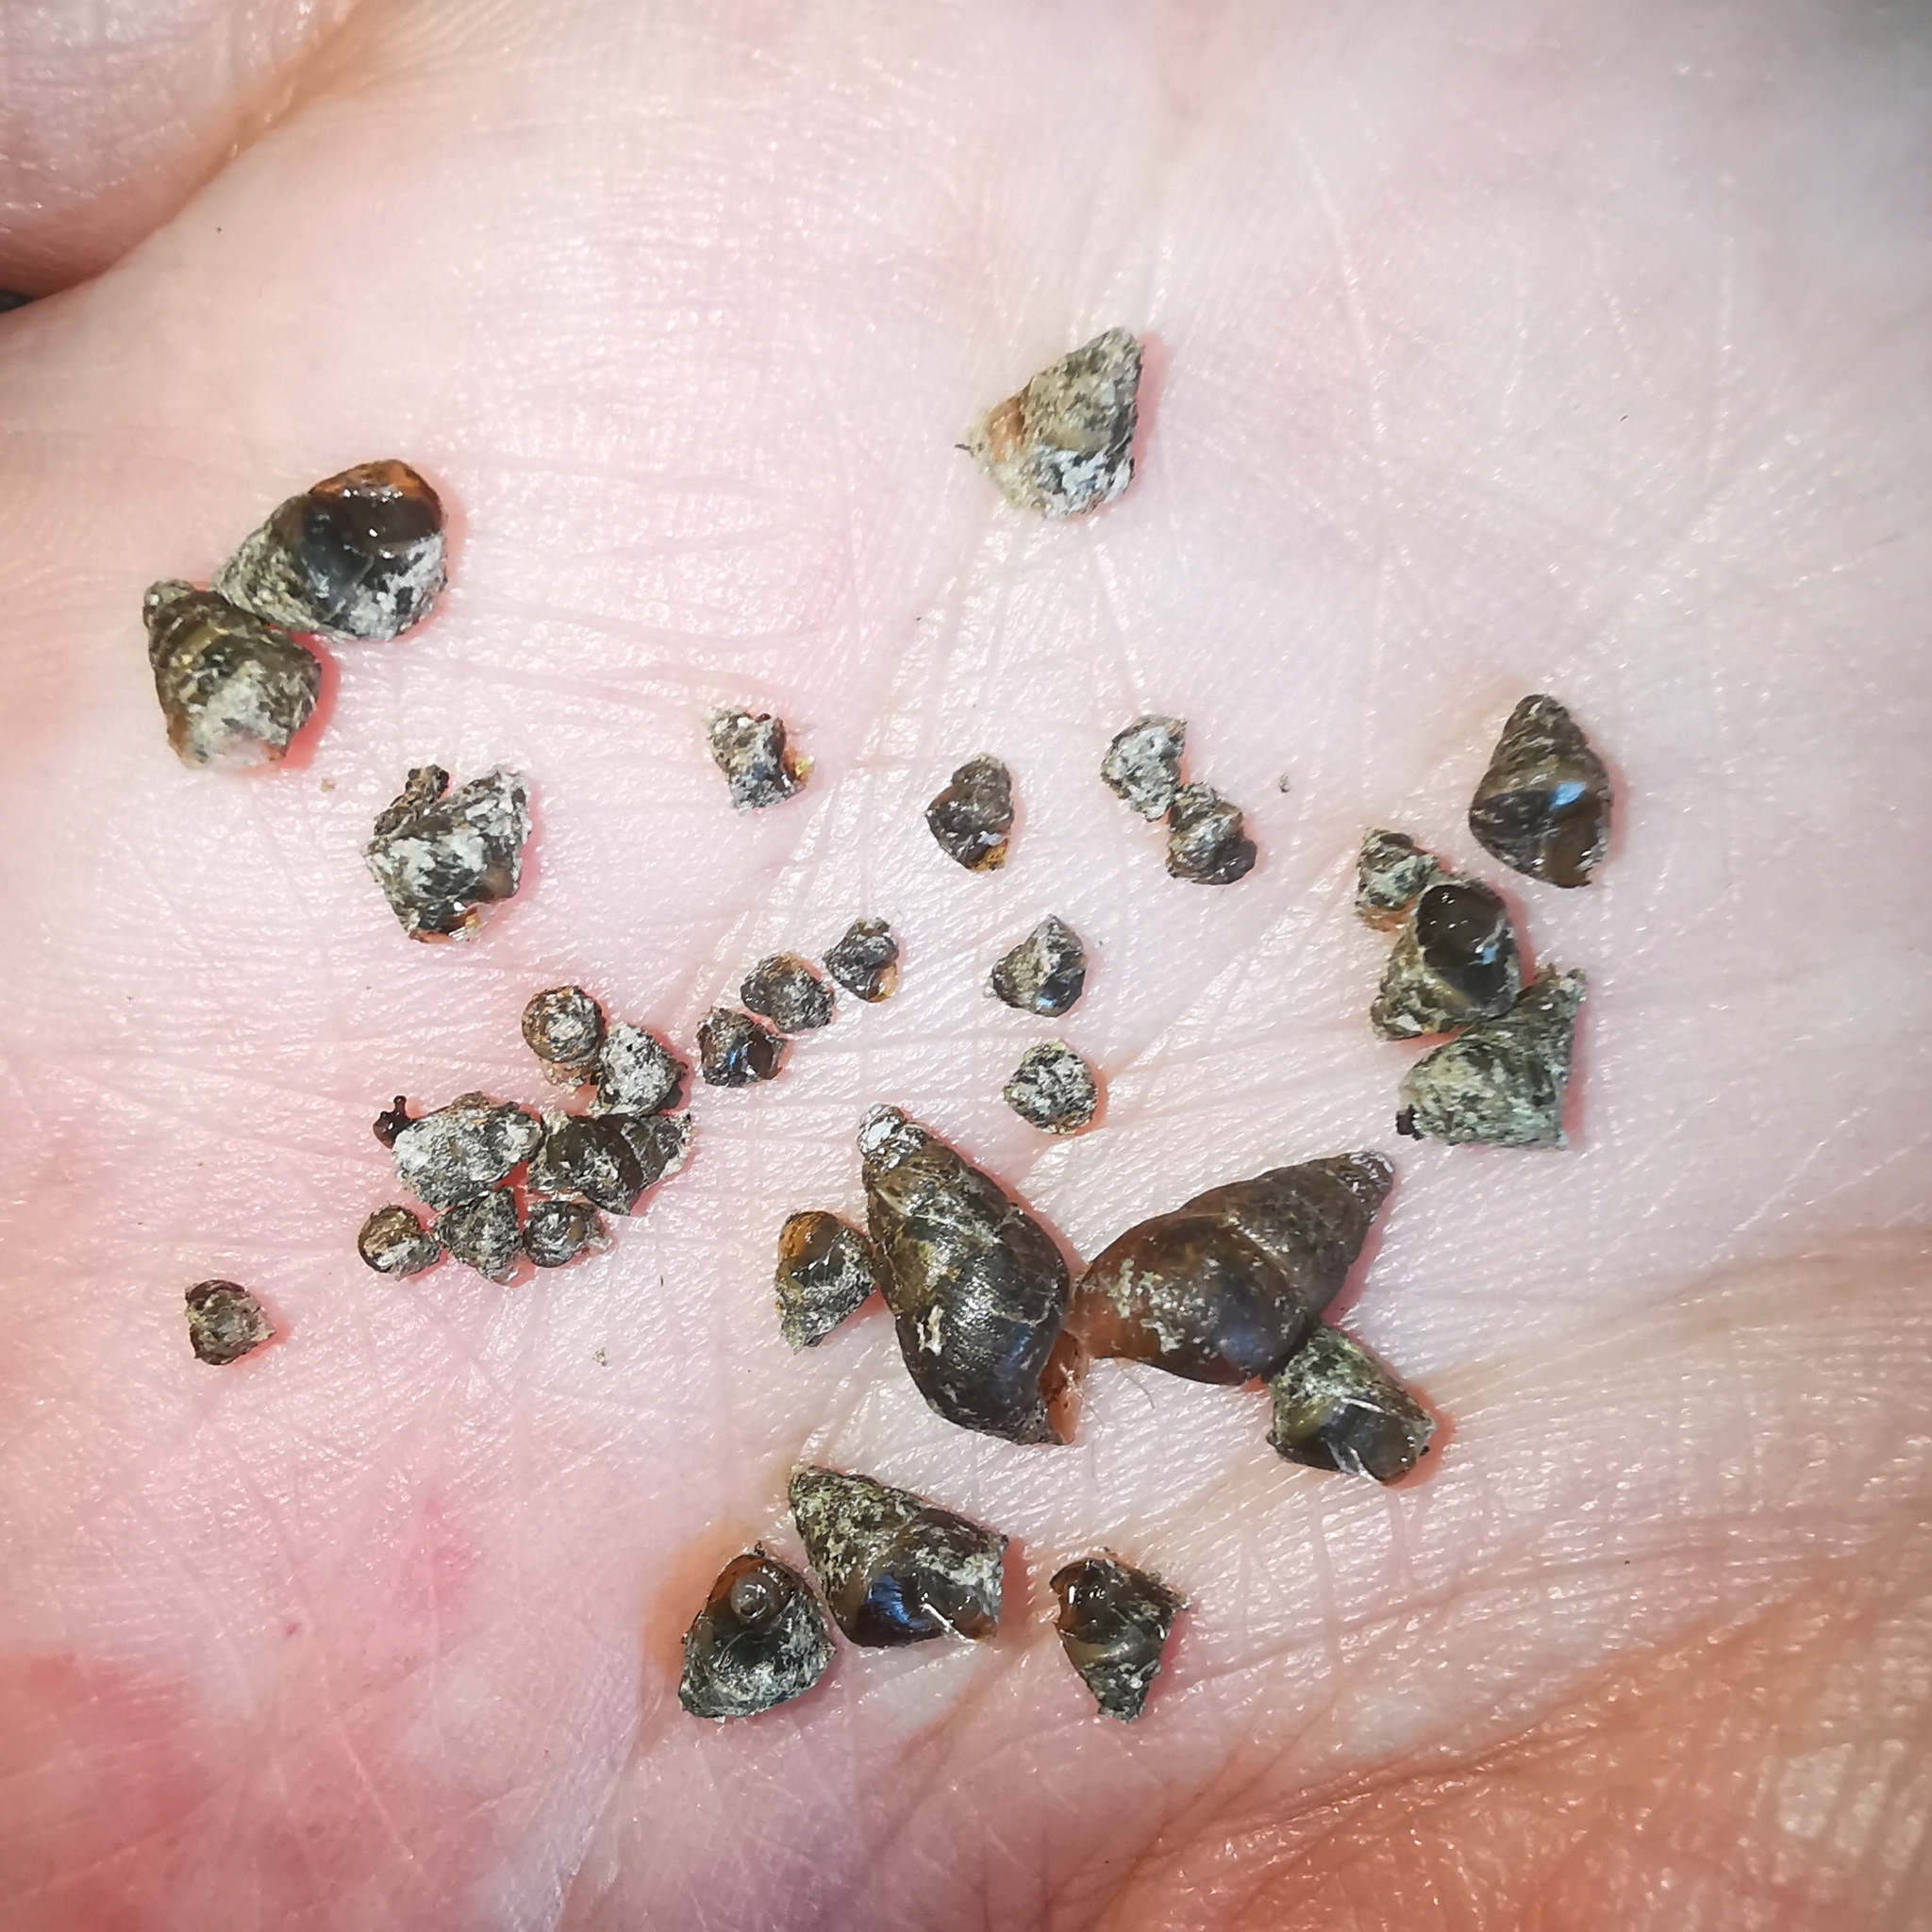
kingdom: Animalia
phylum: Mollusca
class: Gastropoda
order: Stylommatophora
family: Enidae
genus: Ena
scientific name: Ena montana
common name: Mountain bulin
